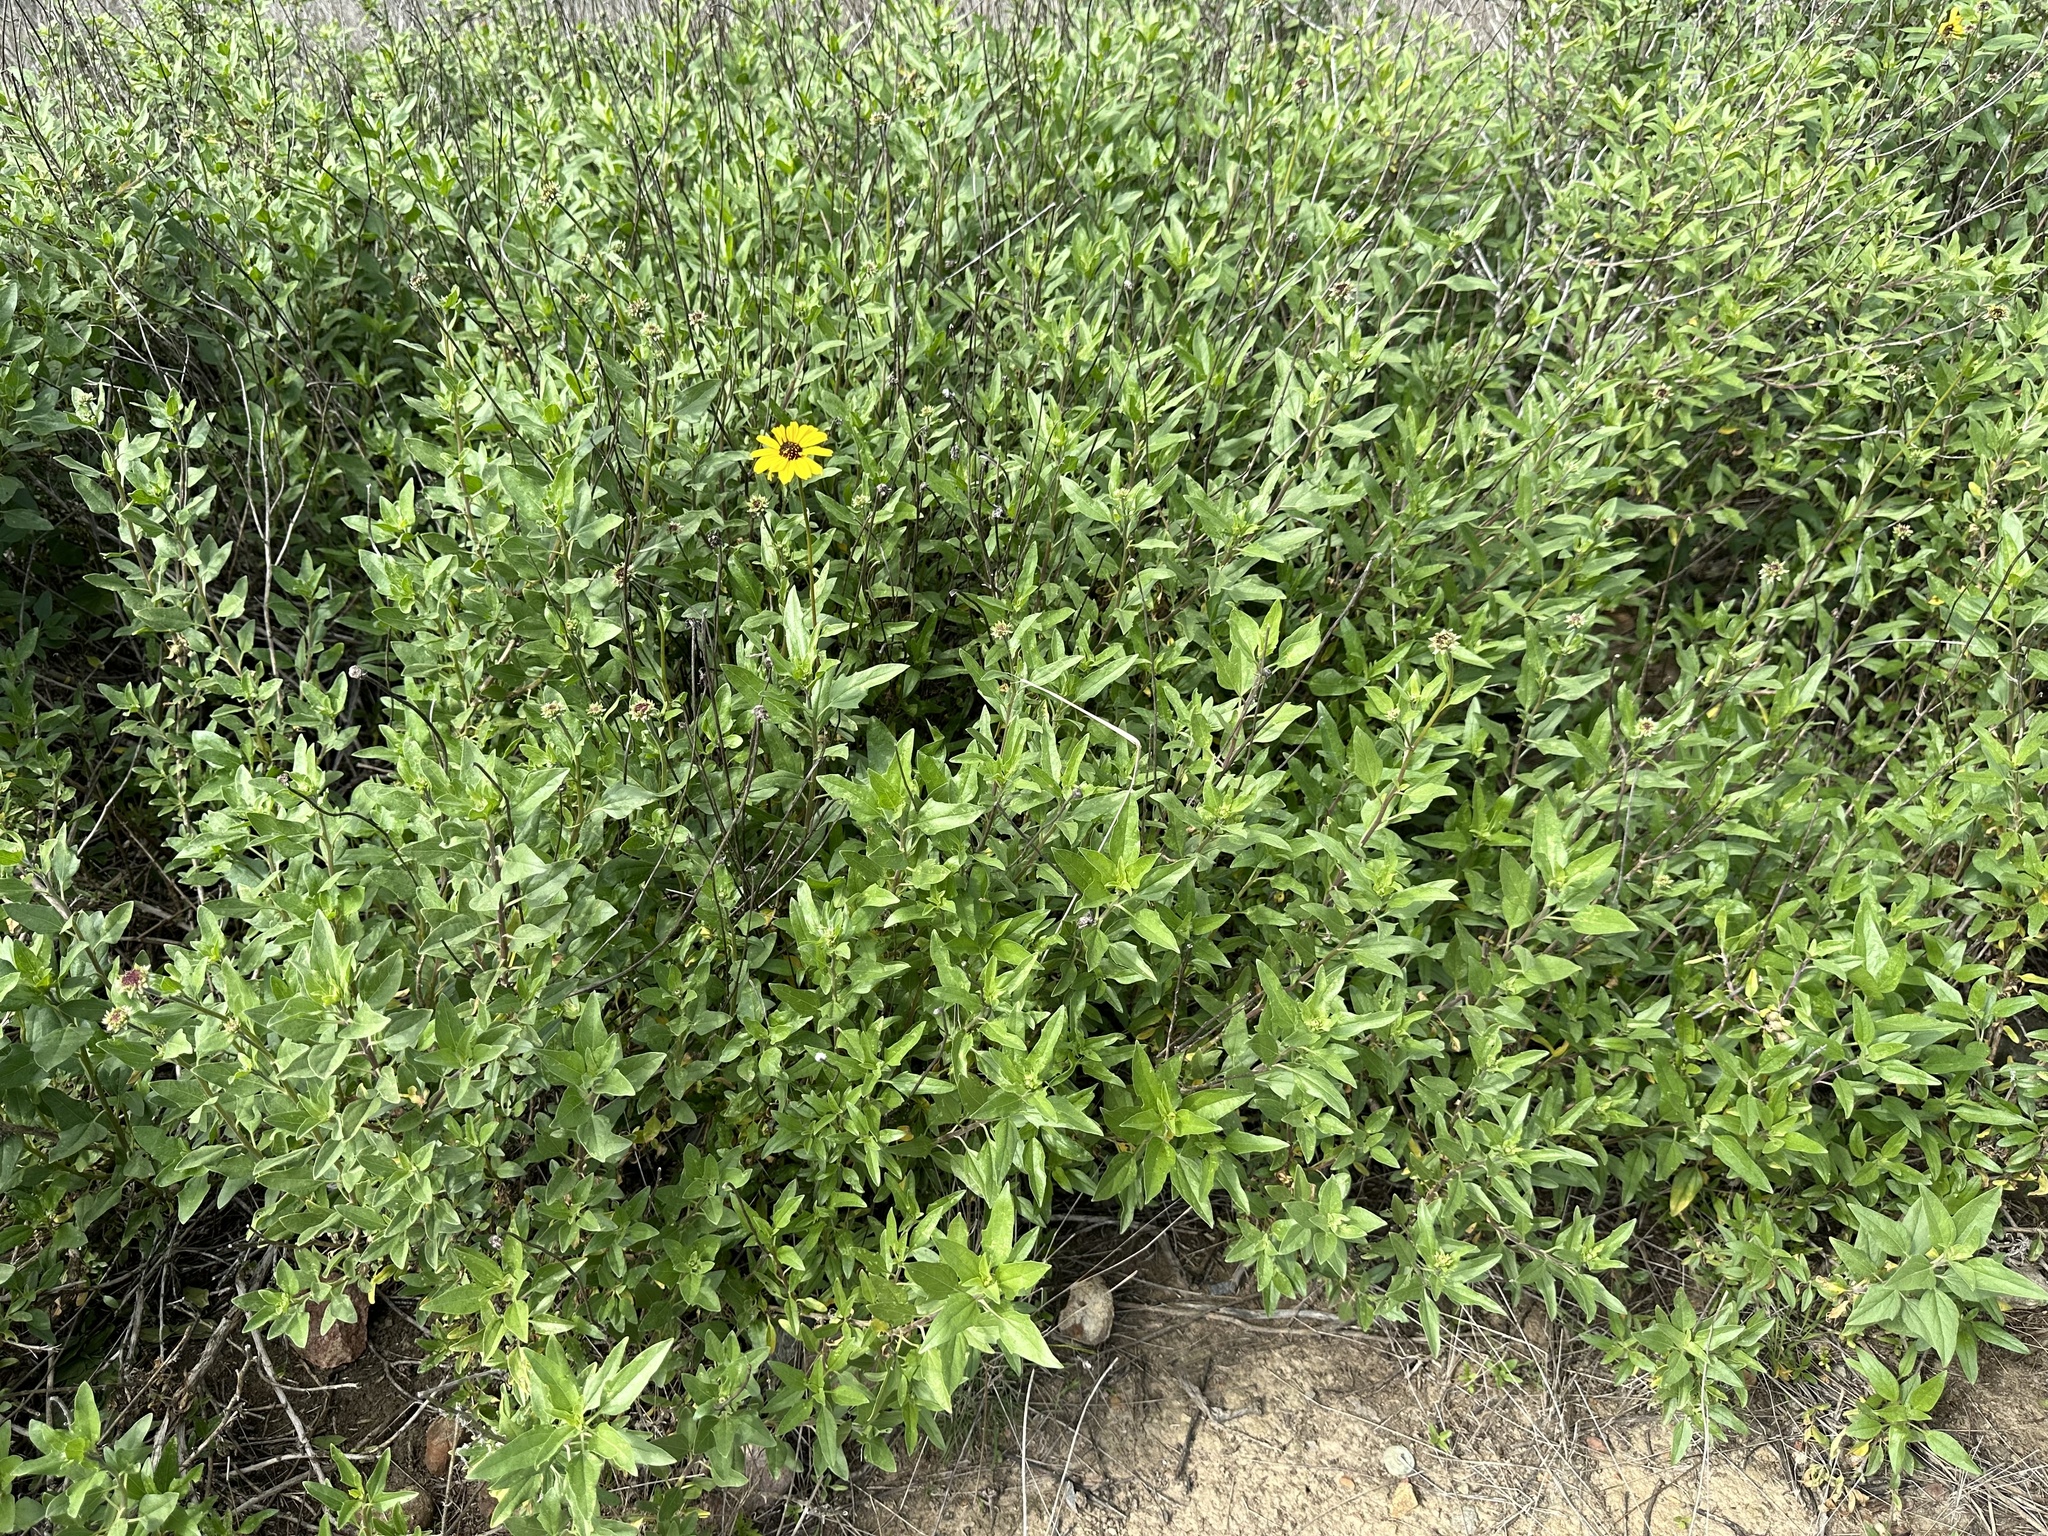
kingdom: Plantae
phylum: Tracheophyta
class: Magnoliopsida
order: Asterales
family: Asteraceae
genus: Encelia
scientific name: Encelia californica
